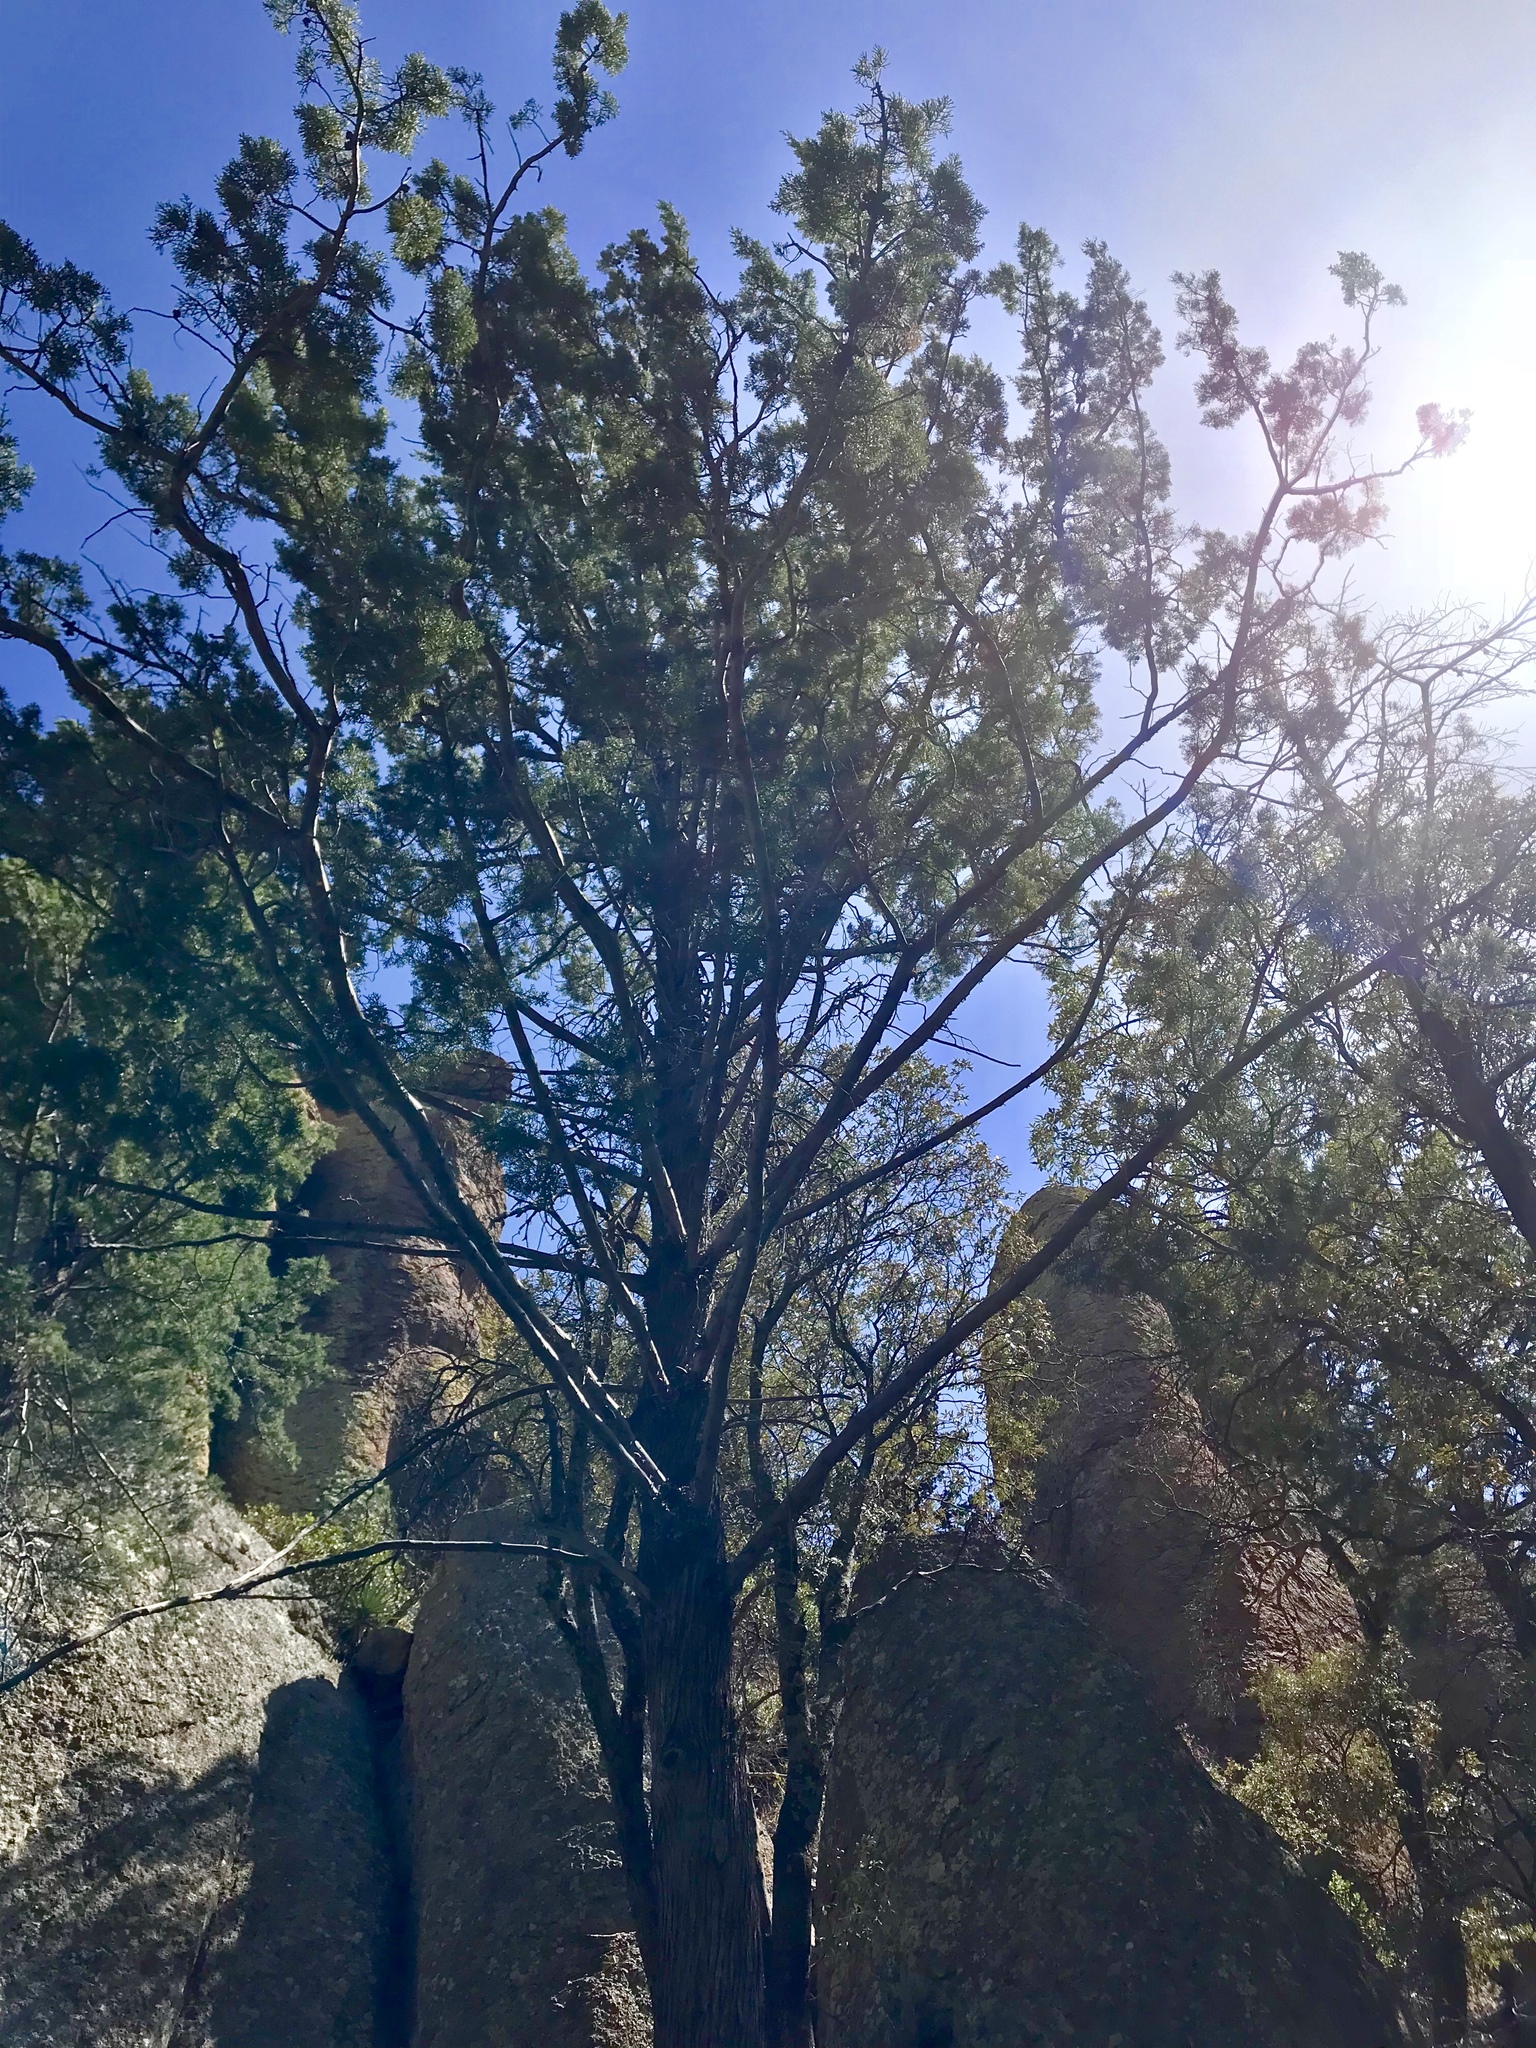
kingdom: Plantae
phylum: Tracheophyta
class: Pinopsida
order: Pinales
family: Cupressaceae
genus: Cupressus
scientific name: Cupressus arizonica
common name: Arizona cypress
